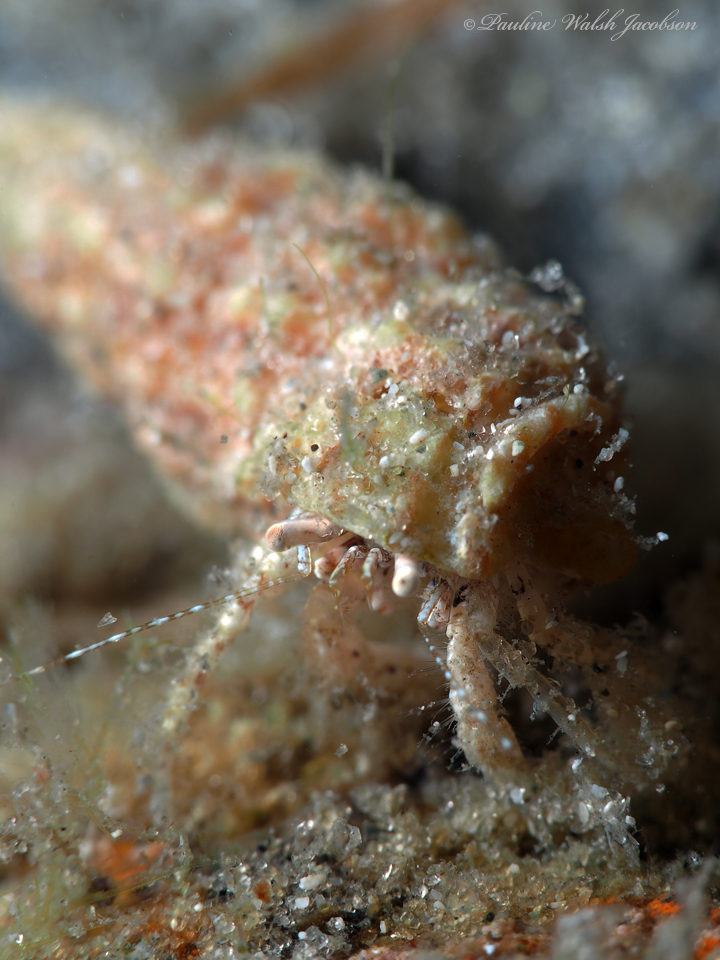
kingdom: Animalia
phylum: Arthropoda
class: Malacostraca
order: Decapoda
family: Paguridae
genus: Pagurus
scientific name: Pagurus maclaughlinae
